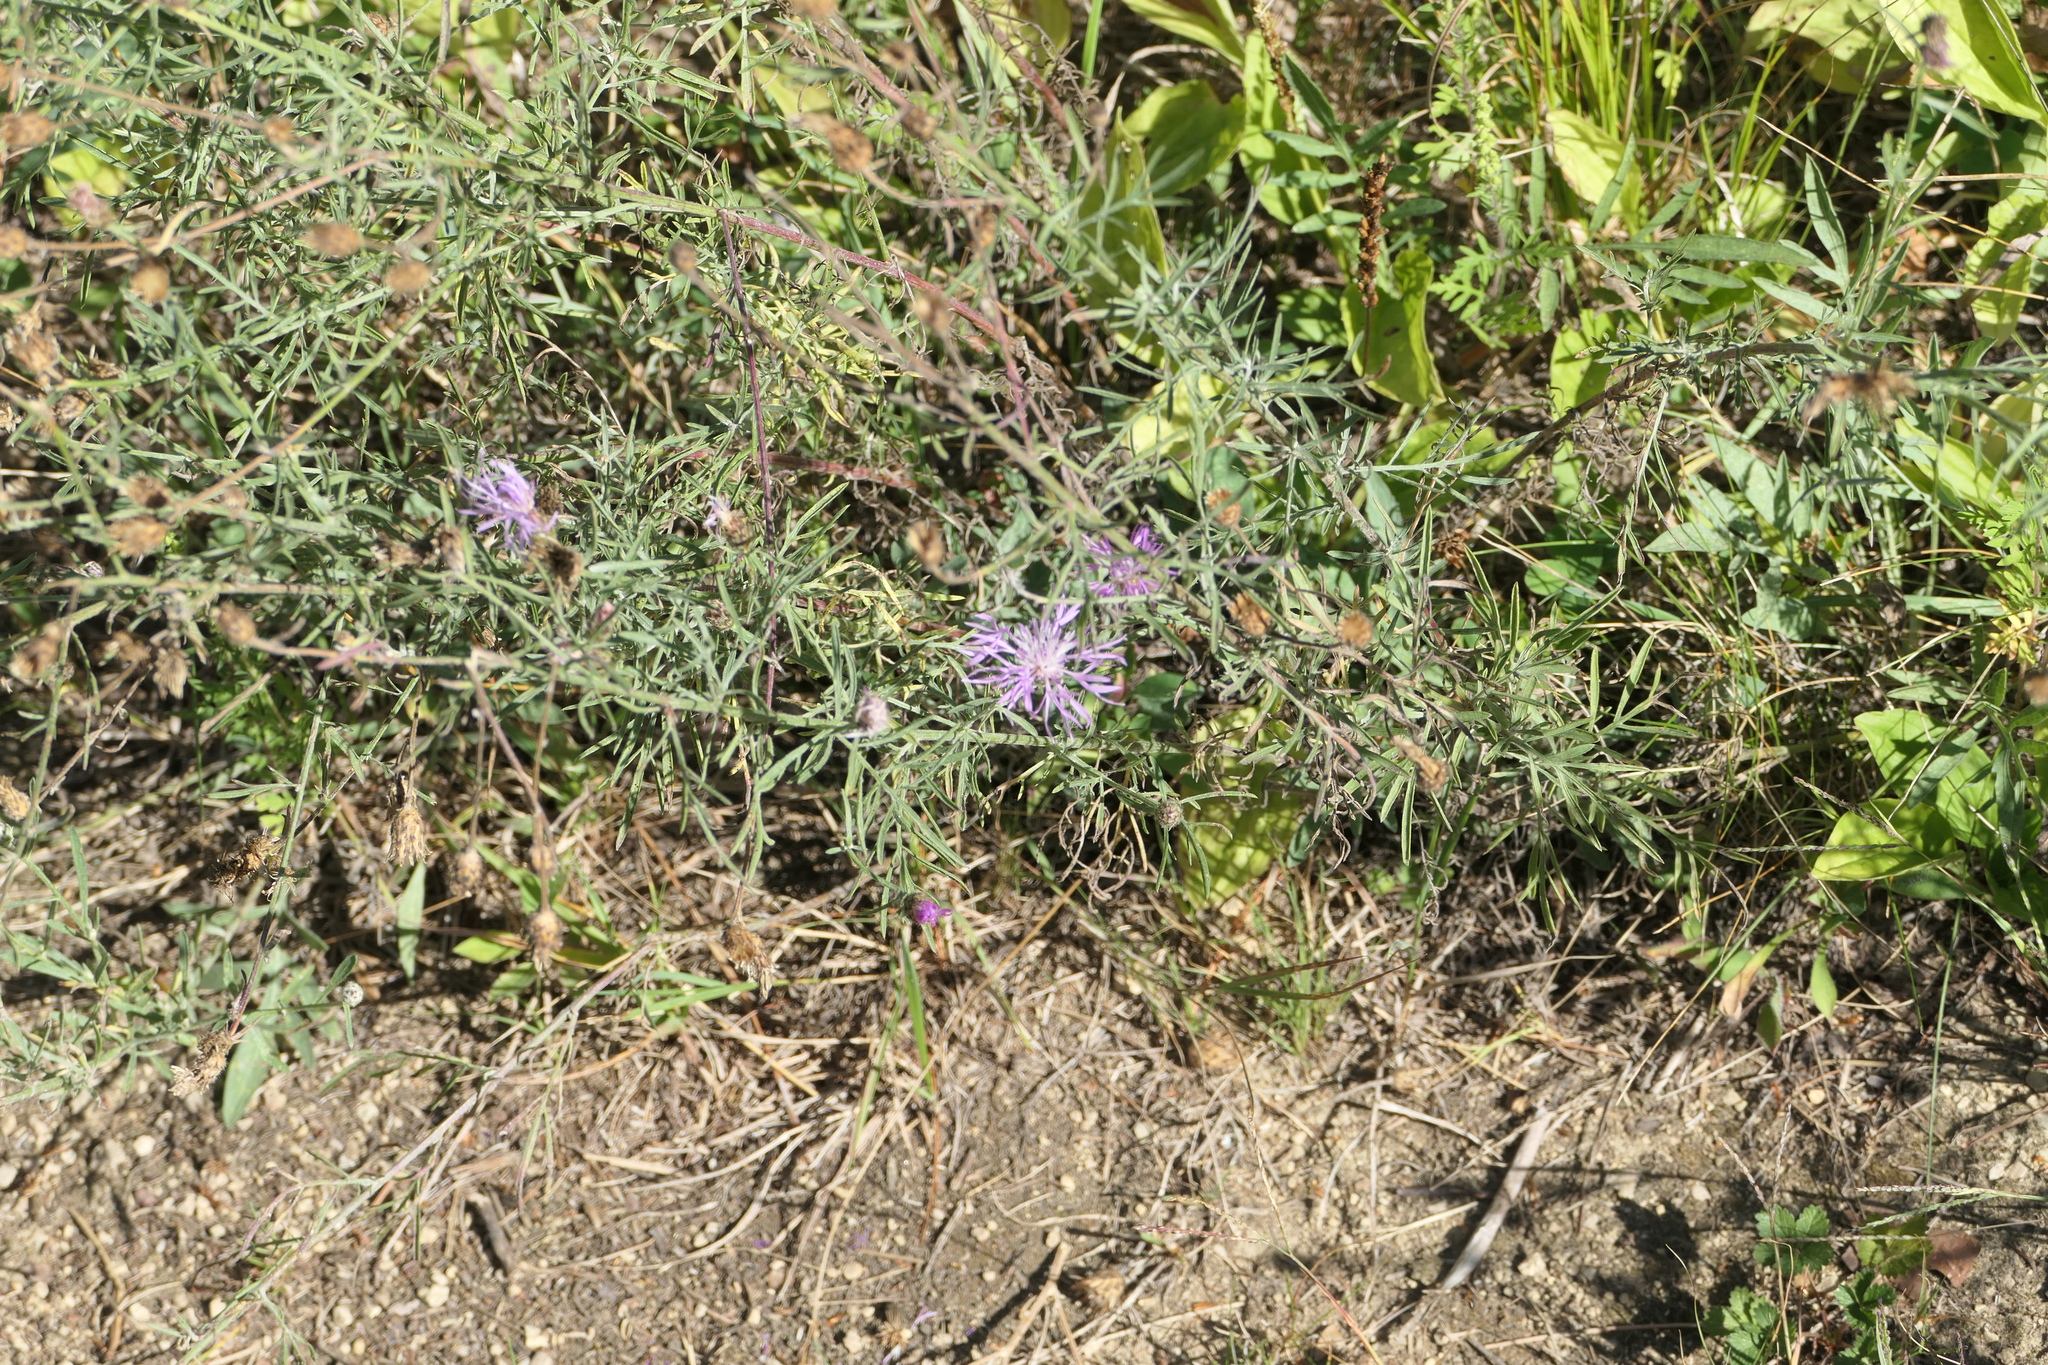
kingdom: Plantae
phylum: Tracheophyta
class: Magnoliopsida
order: Asterales
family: Asteraceae
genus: Centaurea
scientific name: Centaurea stoebe
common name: Spotted knapweed
